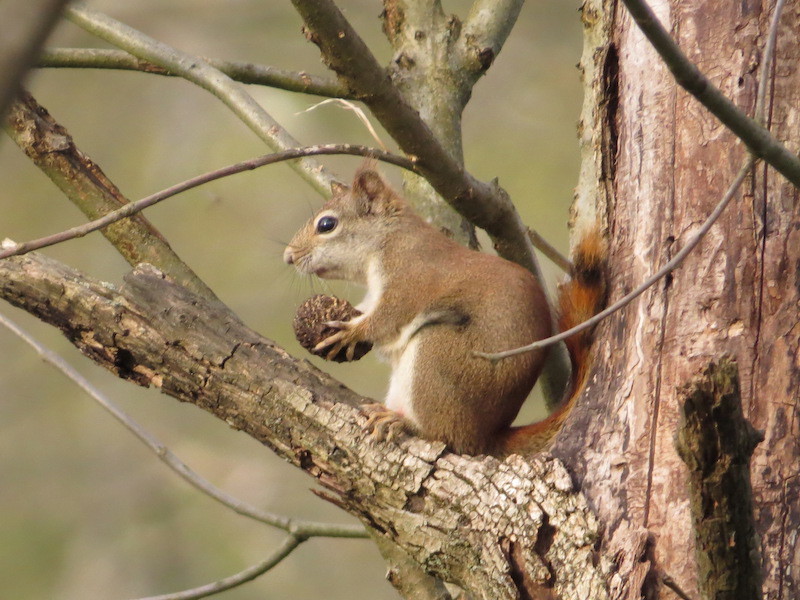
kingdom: Animalia
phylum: Chordata
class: Mammalia
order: Rodentia
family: Sciuridae
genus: Tamiasciurus
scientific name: Tamiasciurus hudsonicus
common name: Red squirrel
